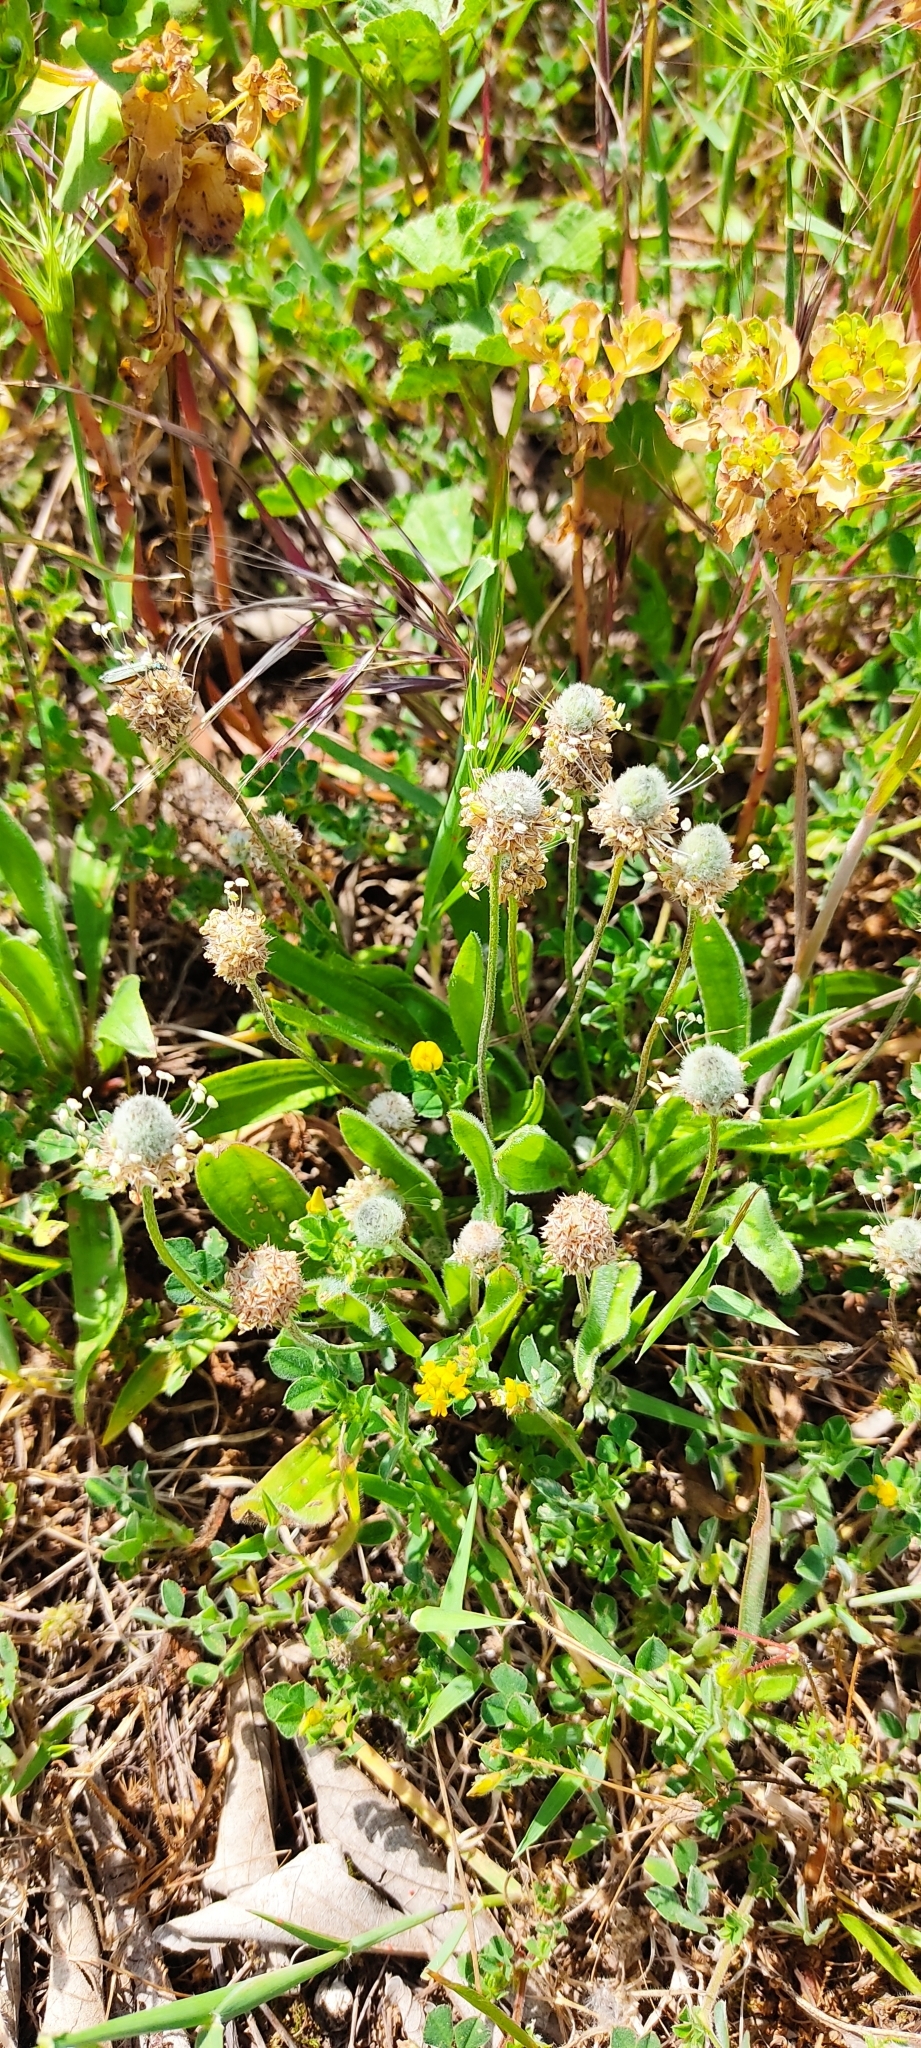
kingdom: Plantae
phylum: Tracheophyta
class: Magnoliopsida
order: Lamiales
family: Plantaginaceae
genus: Plantago
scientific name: Plantago lagopus
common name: Hare-foot plantain
